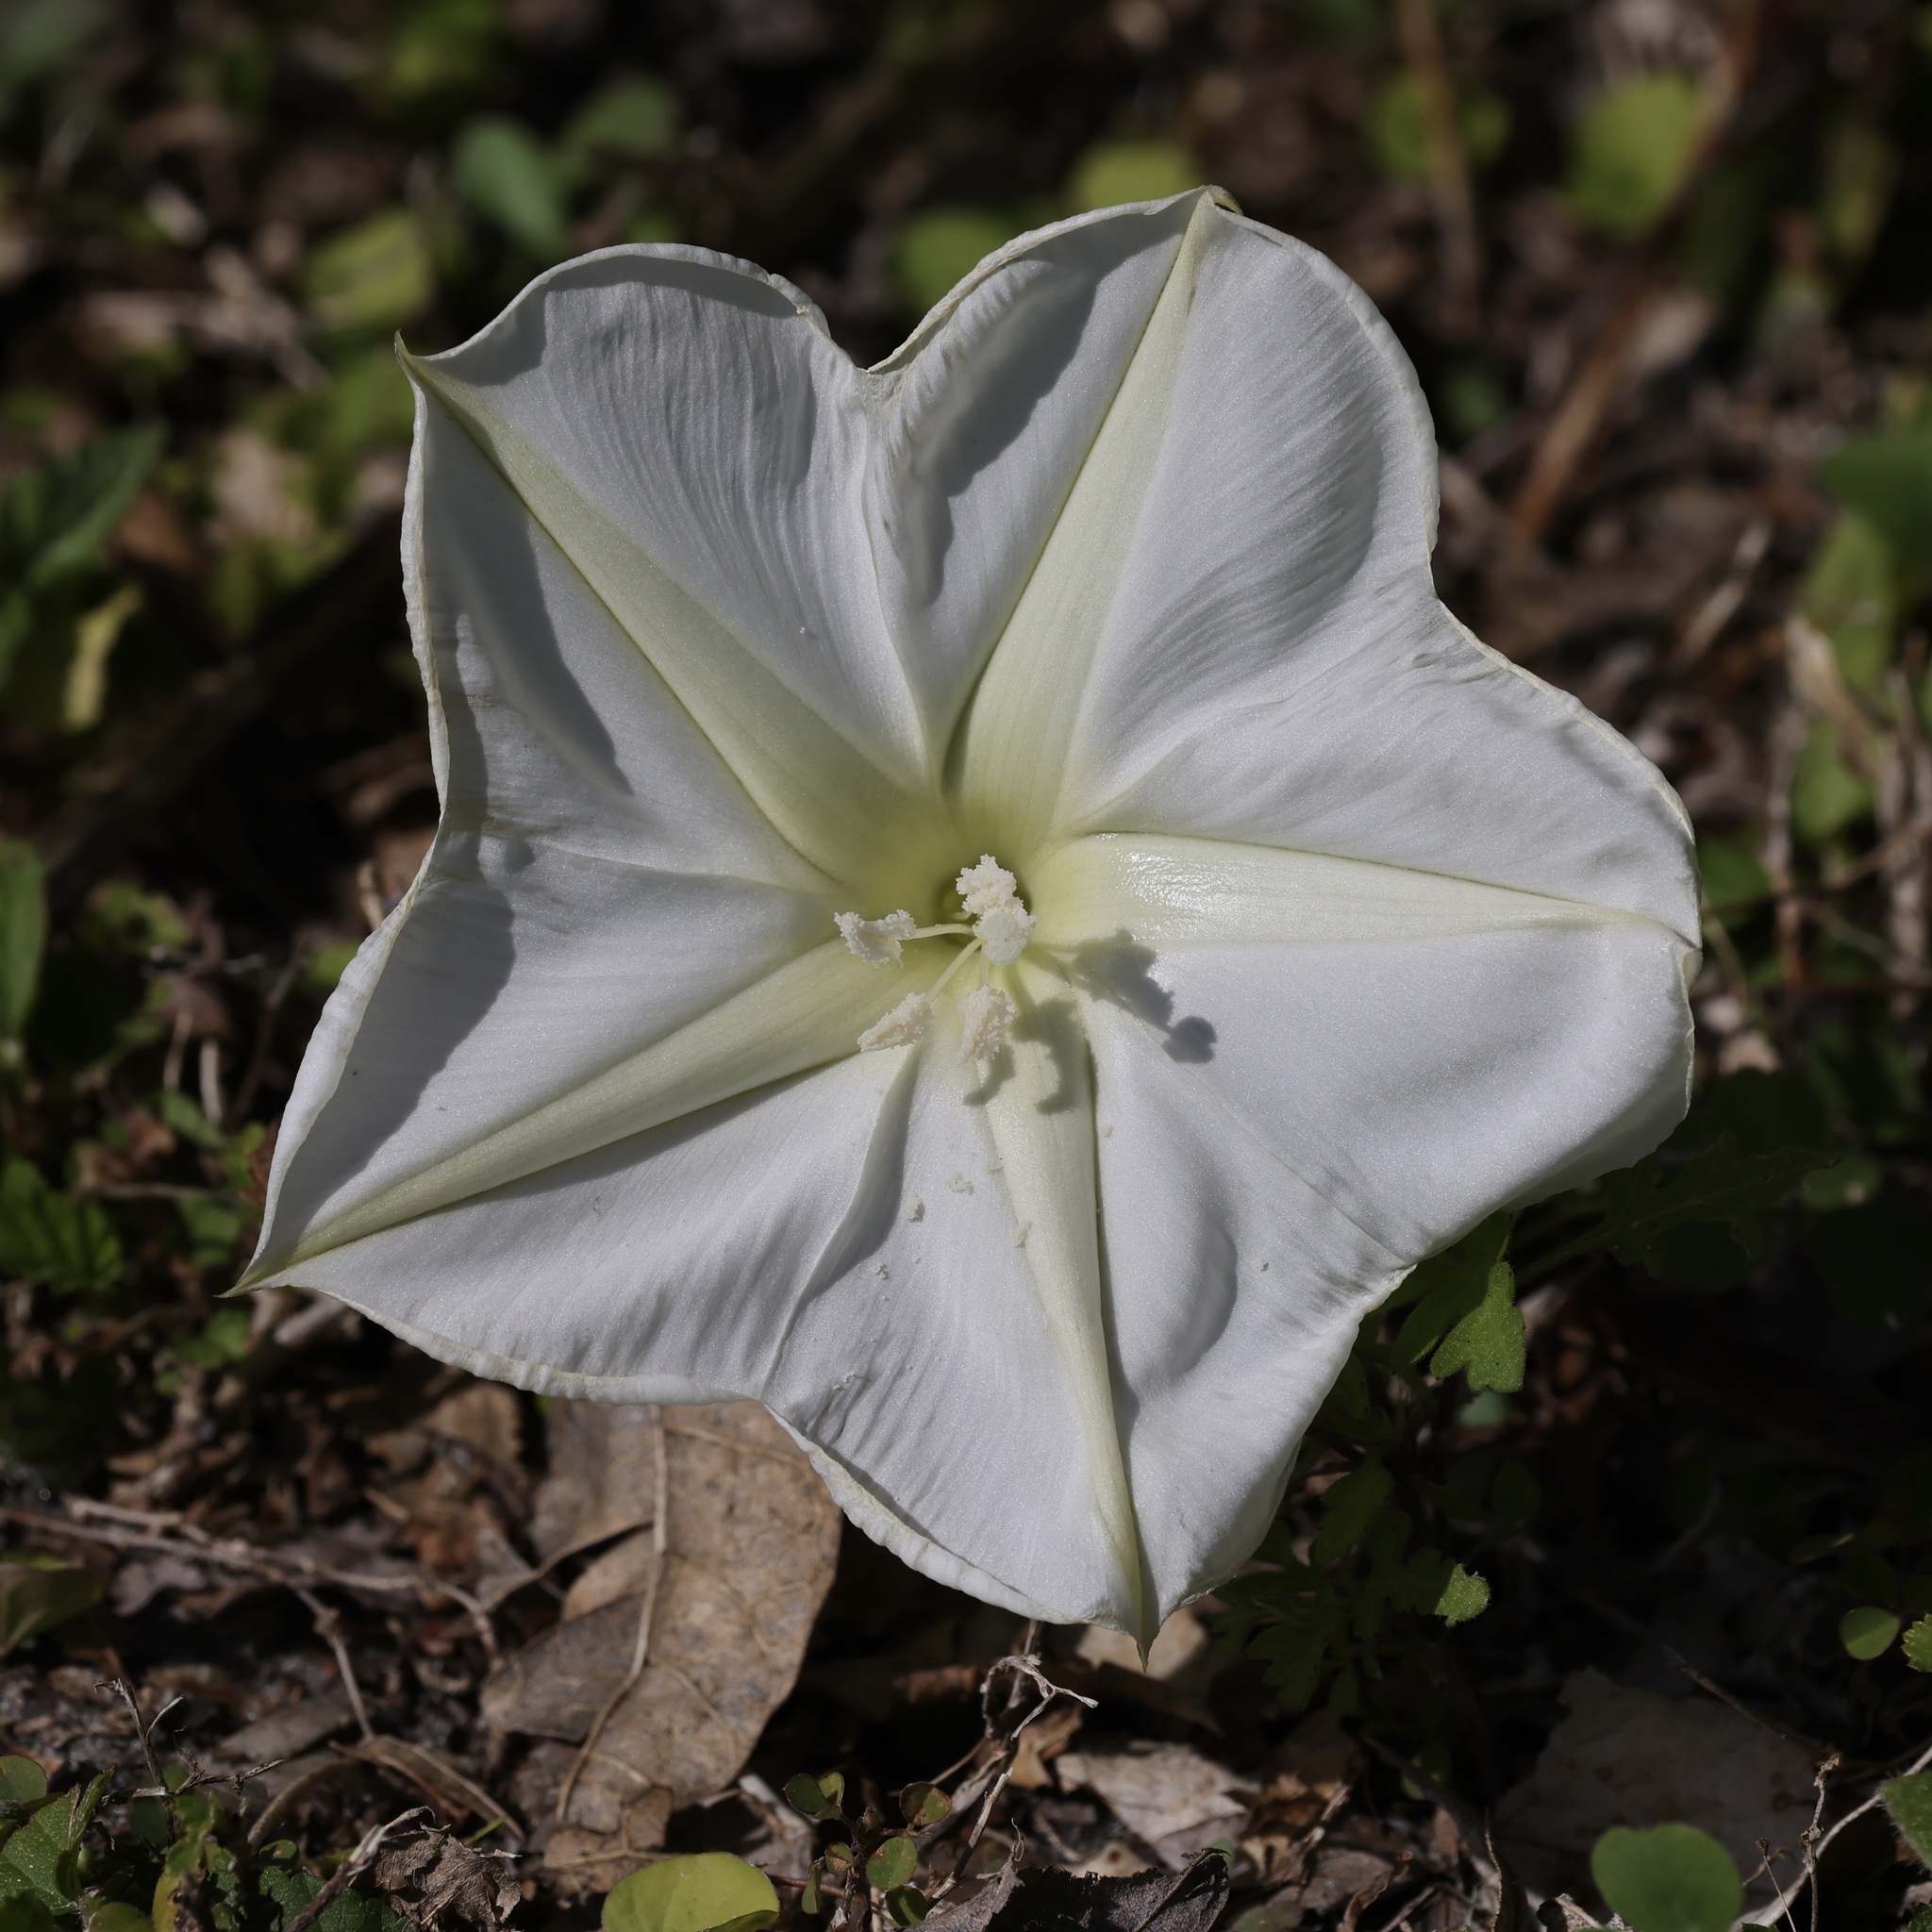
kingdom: Plantae
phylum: Tracheophyta
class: Magnoliopsida
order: Solanales
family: Convolvulaceae
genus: Ipomoea
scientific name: Ipomoea alba
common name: Moonflower
